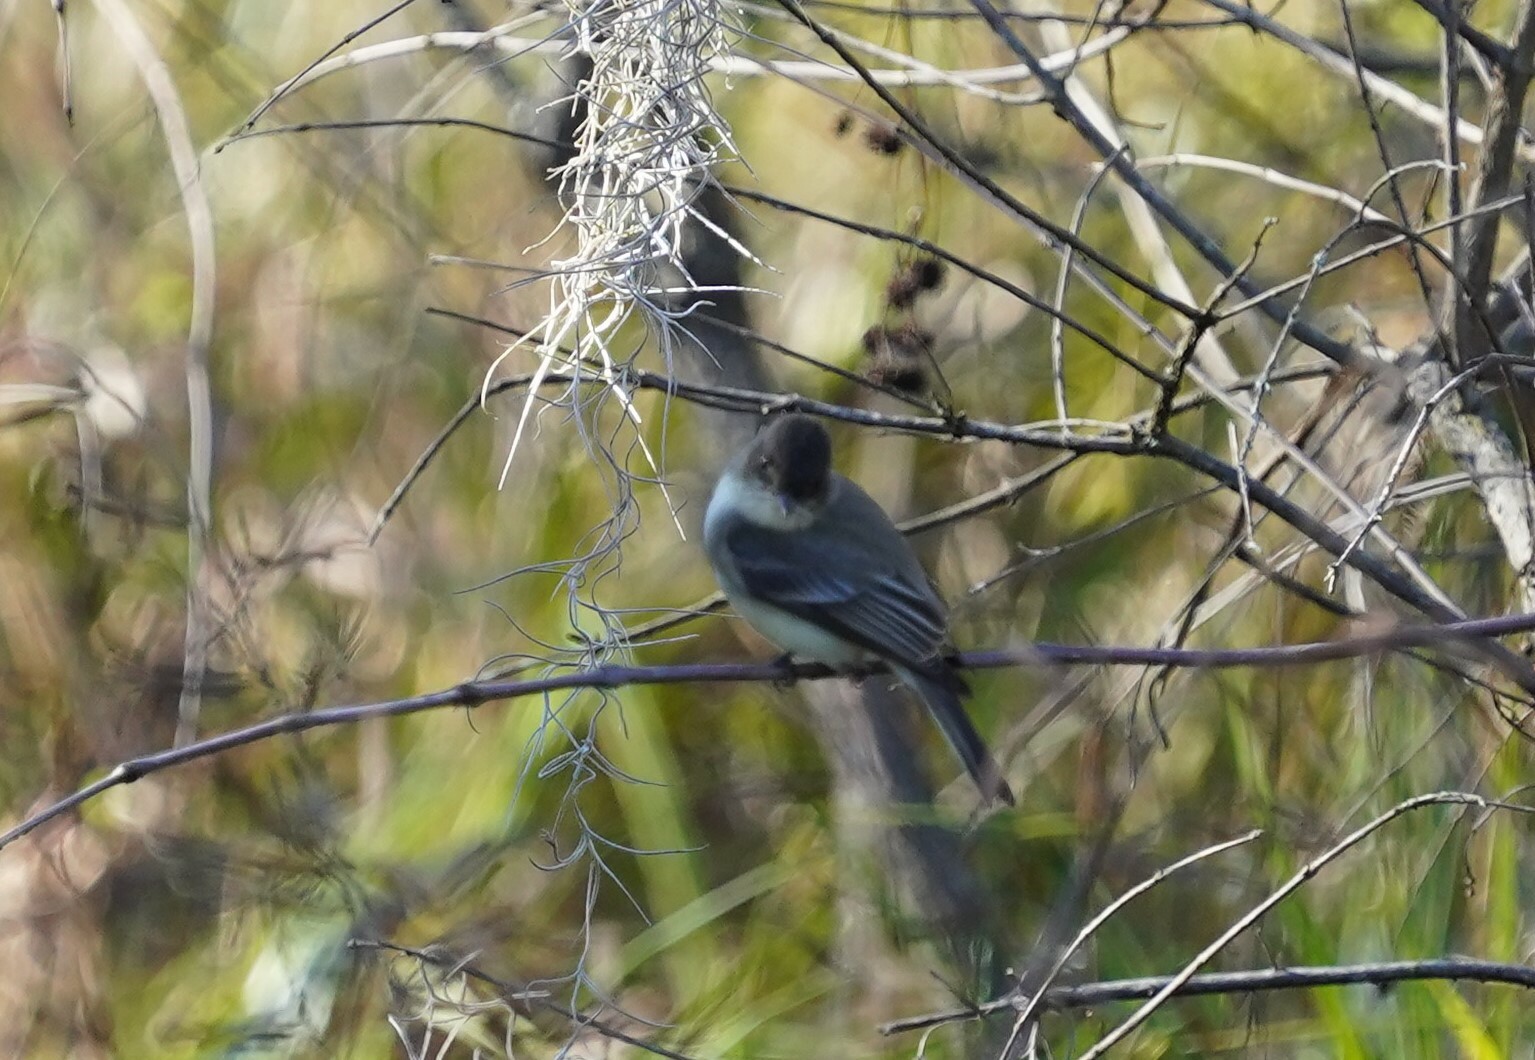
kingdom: Animalia
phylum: Chordata
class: Aves
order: Passeriformes
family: Tyrannidae
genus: Sayornis
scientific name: Sayornis phoebe
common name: Eastern phoebe
